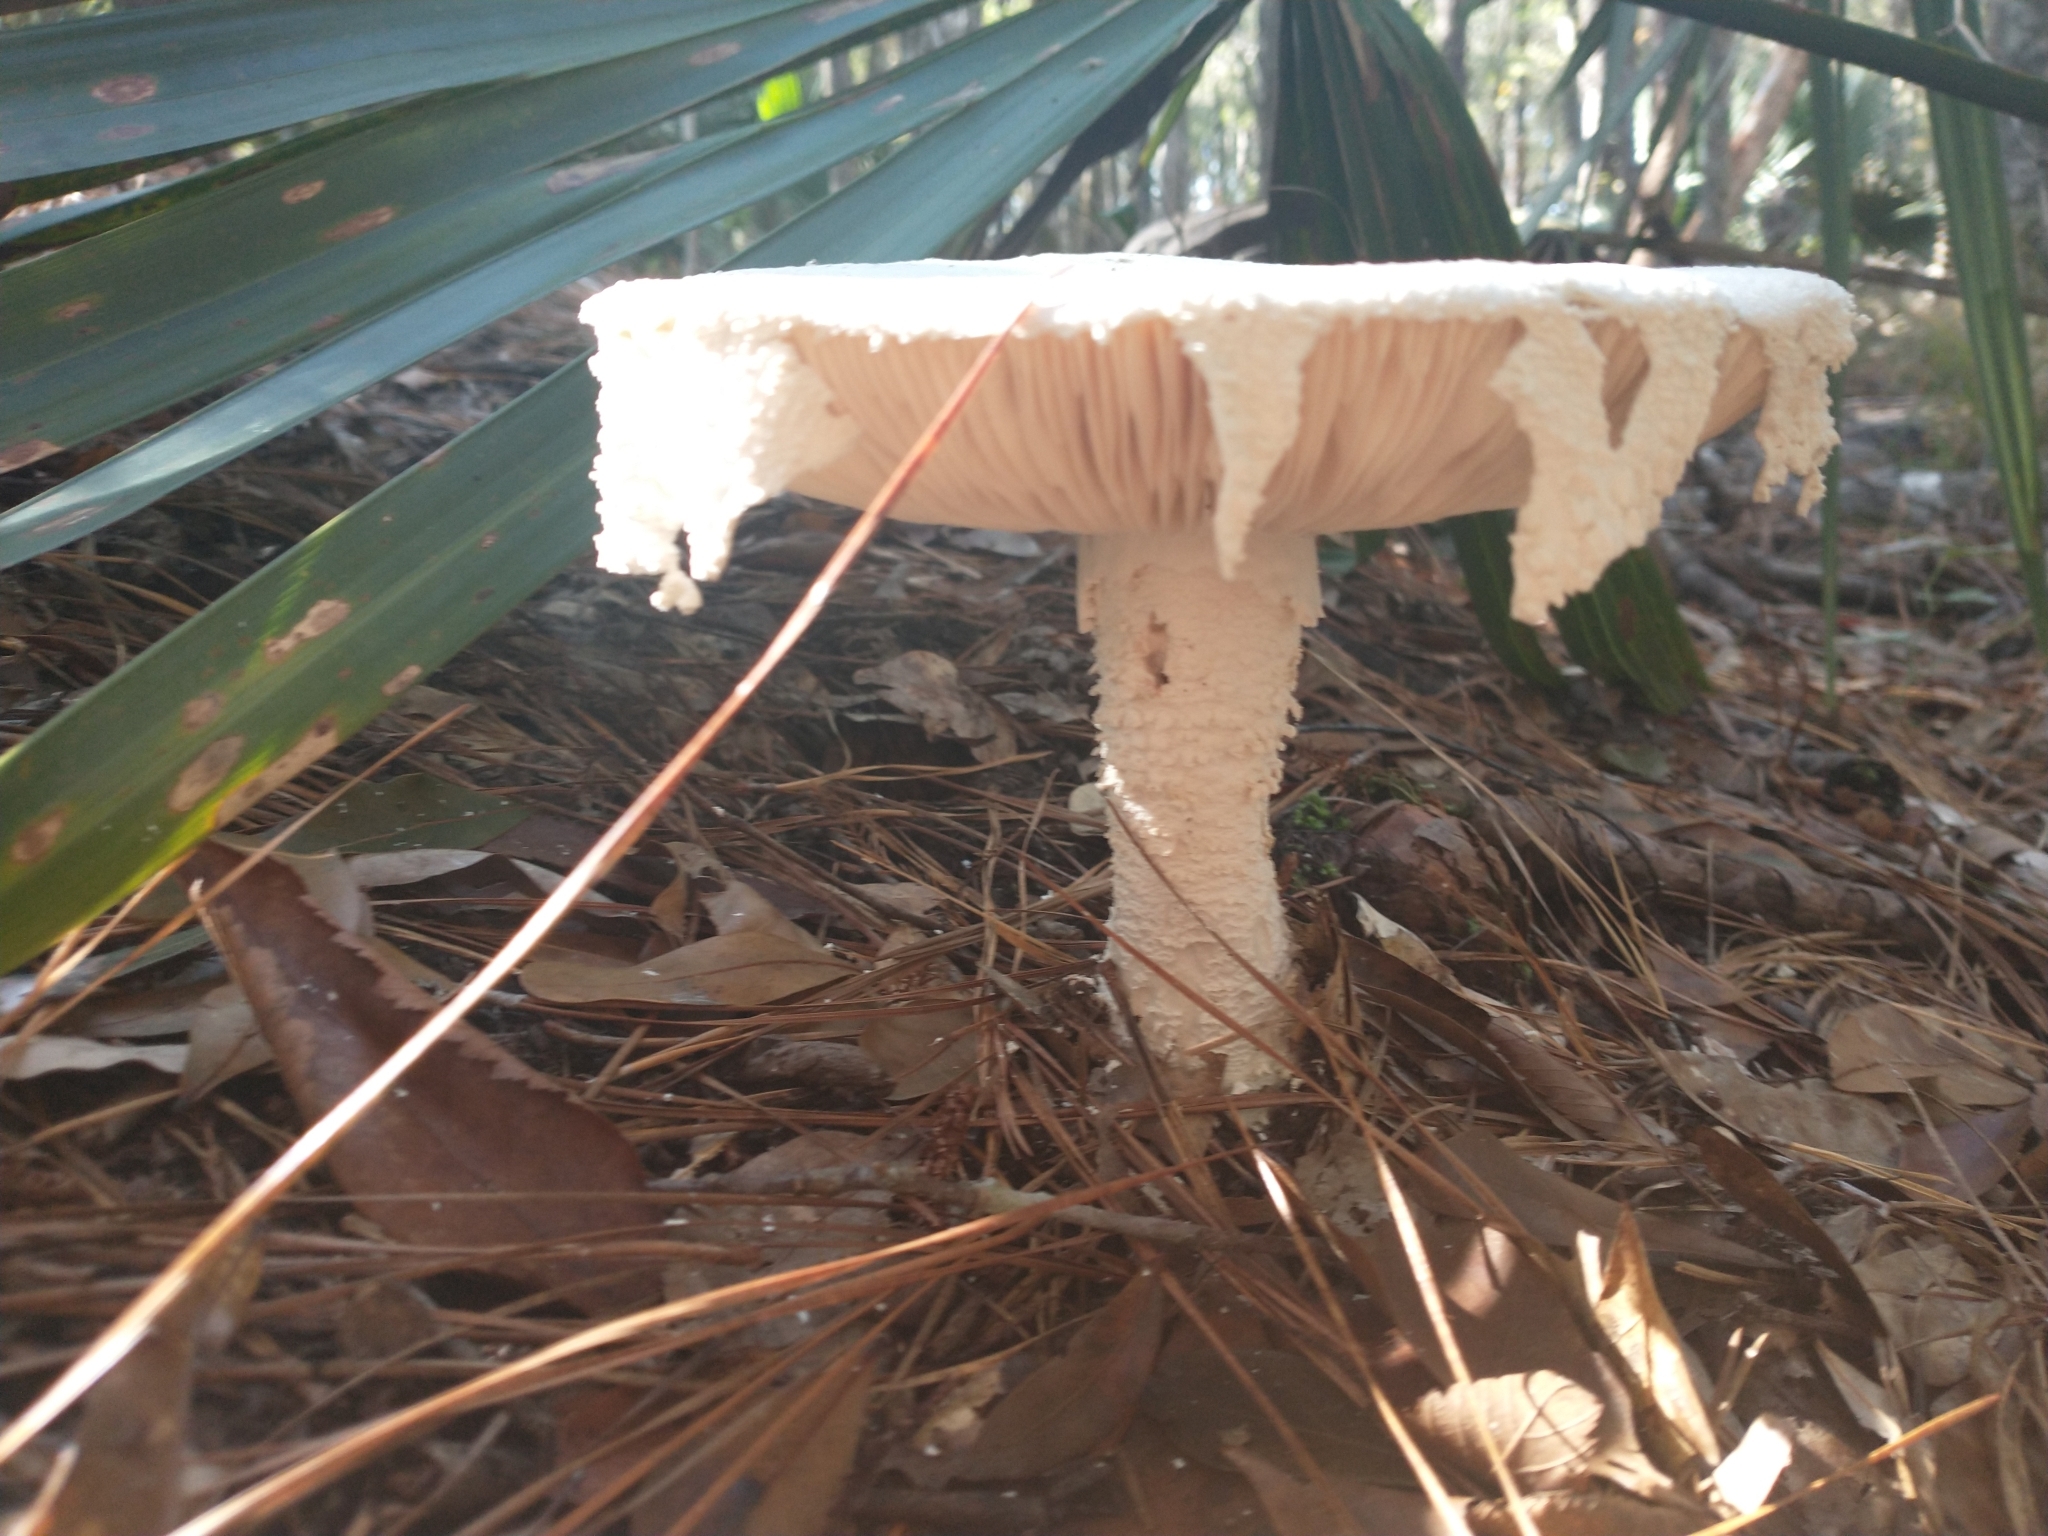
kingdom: Fungi
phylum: Basidiomycota
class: Agaricomycetes
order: Agaricales
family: Amanitaceae
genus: Amanita
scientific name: Amanita polypyramis
